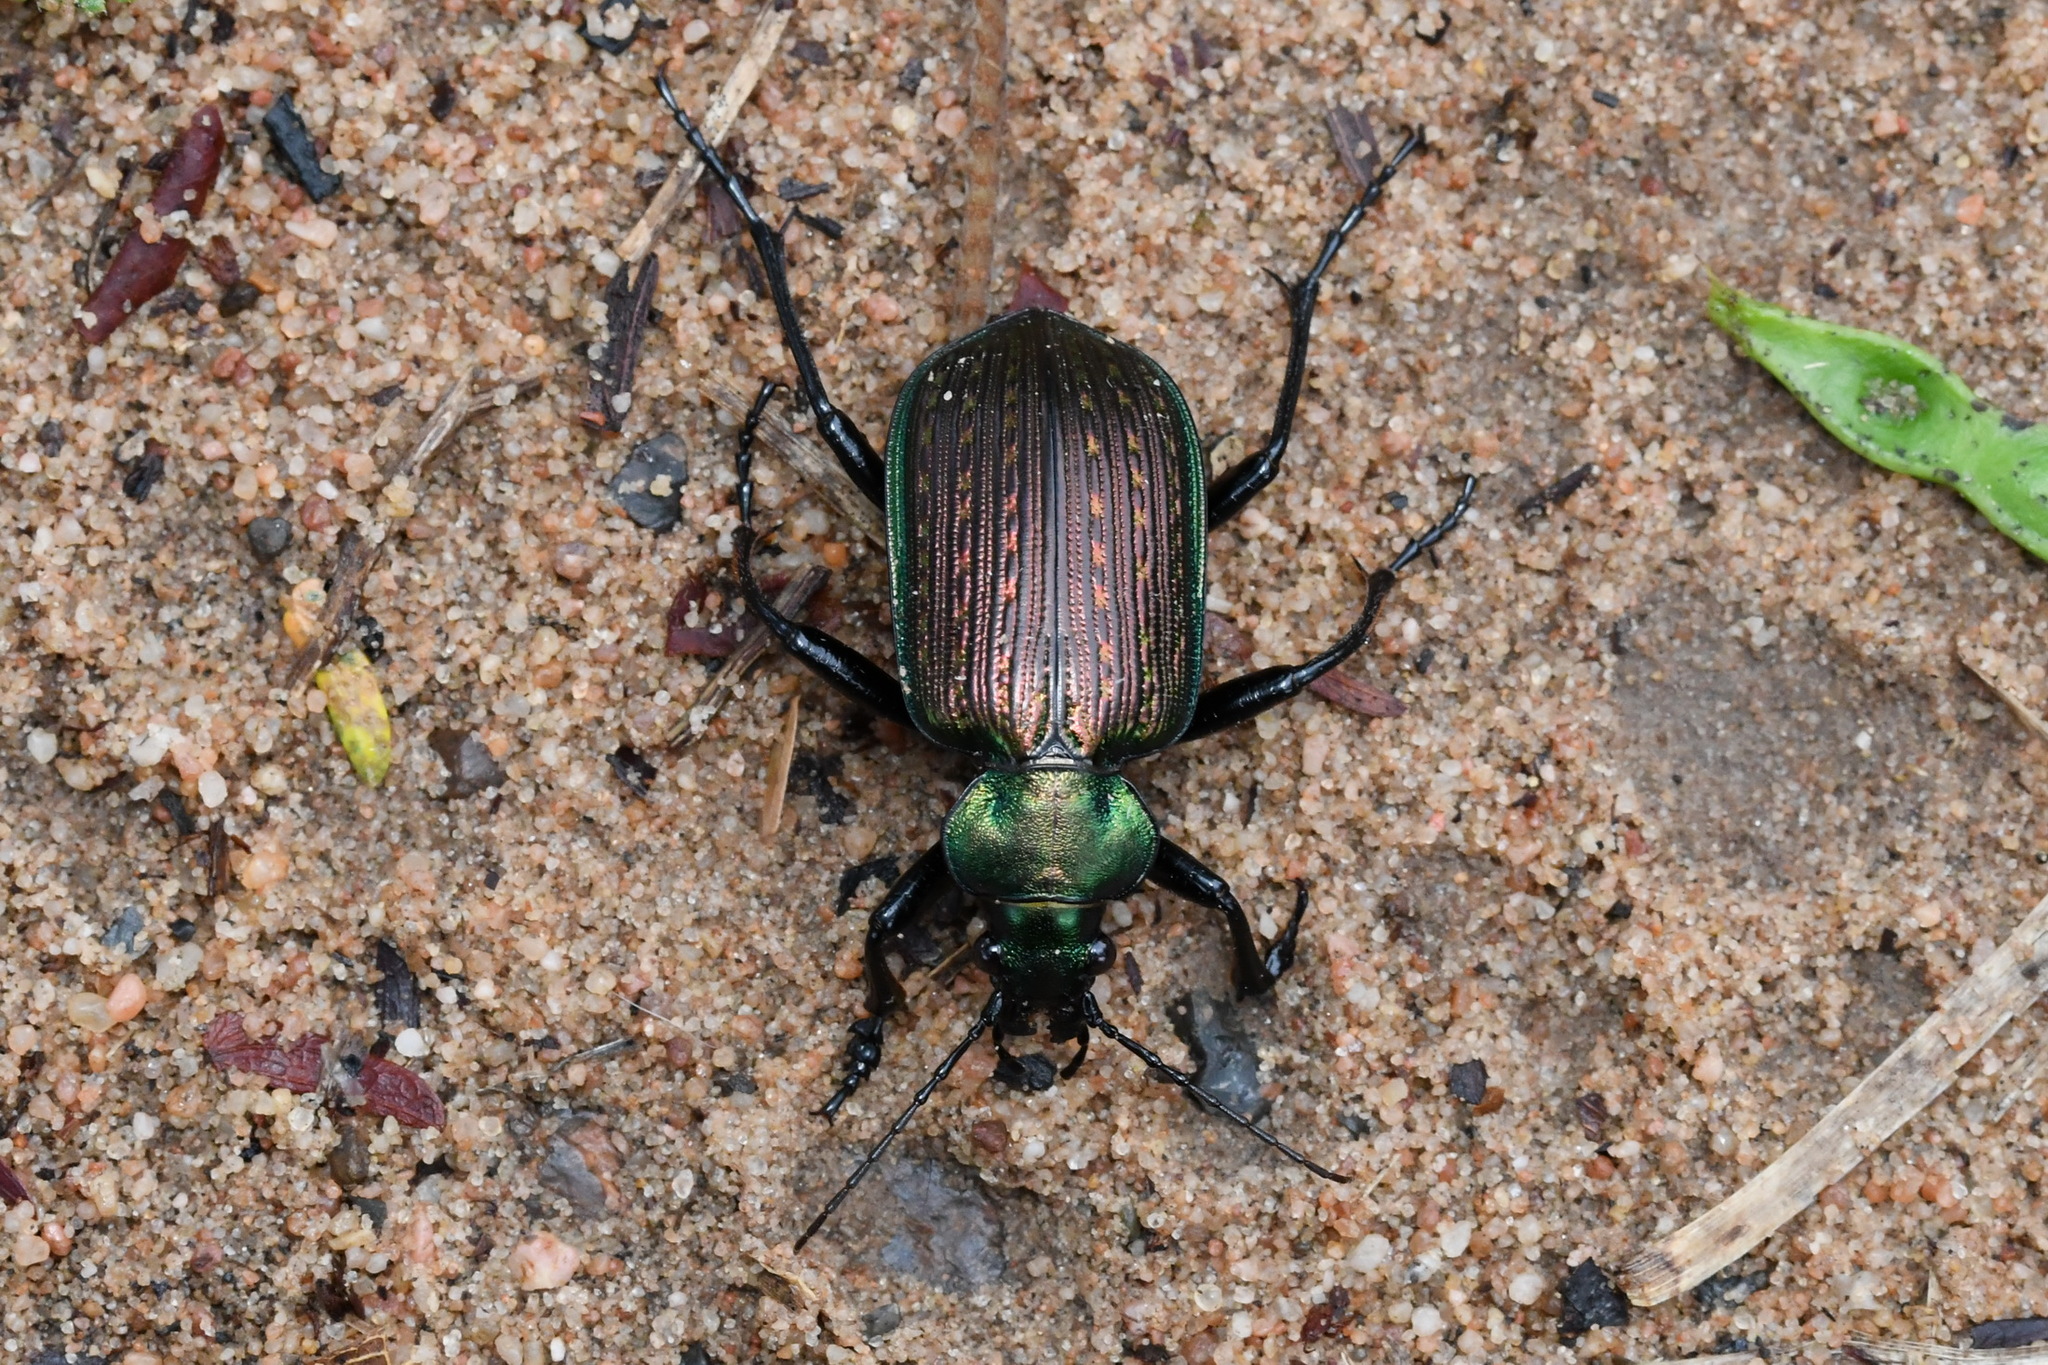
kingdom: Animalia
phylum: Arthropoda
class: Insecta
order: Coleoptera
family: Carabidae
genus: Calosoma
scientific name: Calosoma alternans
